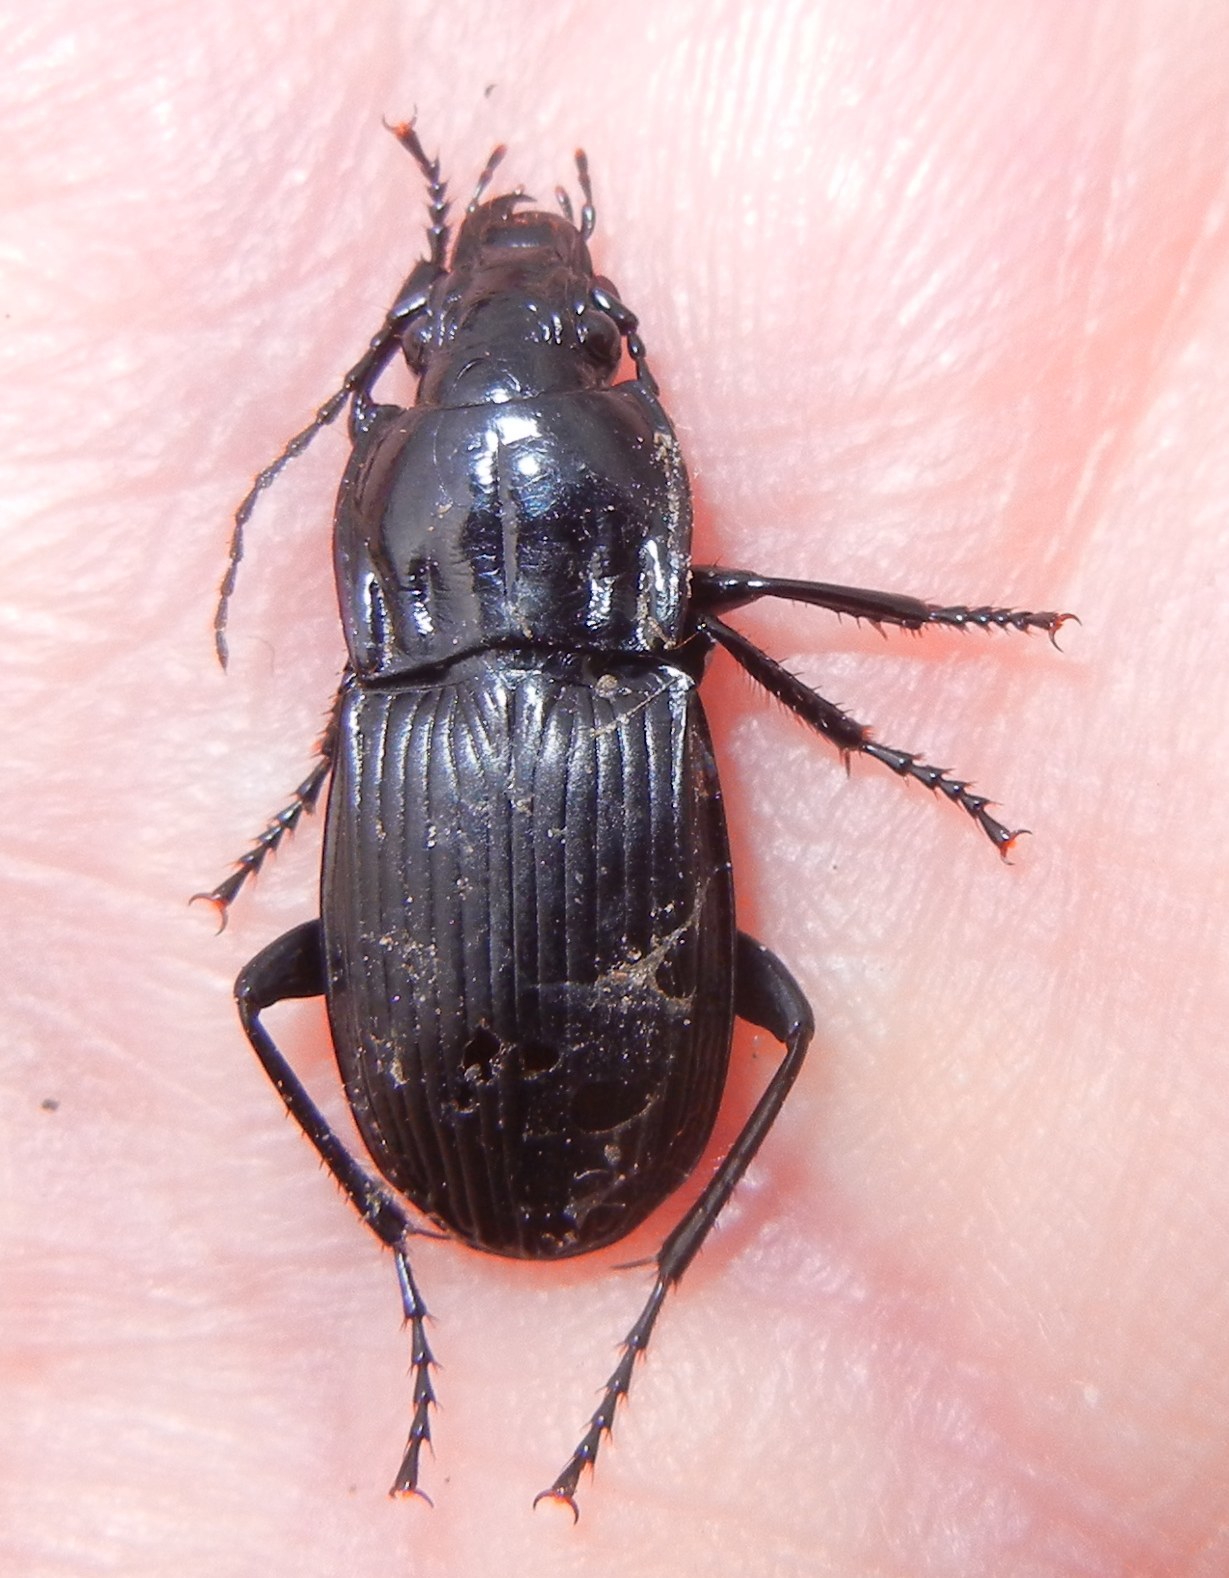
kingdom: Animalia
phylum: Arthropoda
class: Insecta
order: Coleoptera
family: Carabidae
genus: Abax
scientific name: Abax parallelepipedus
